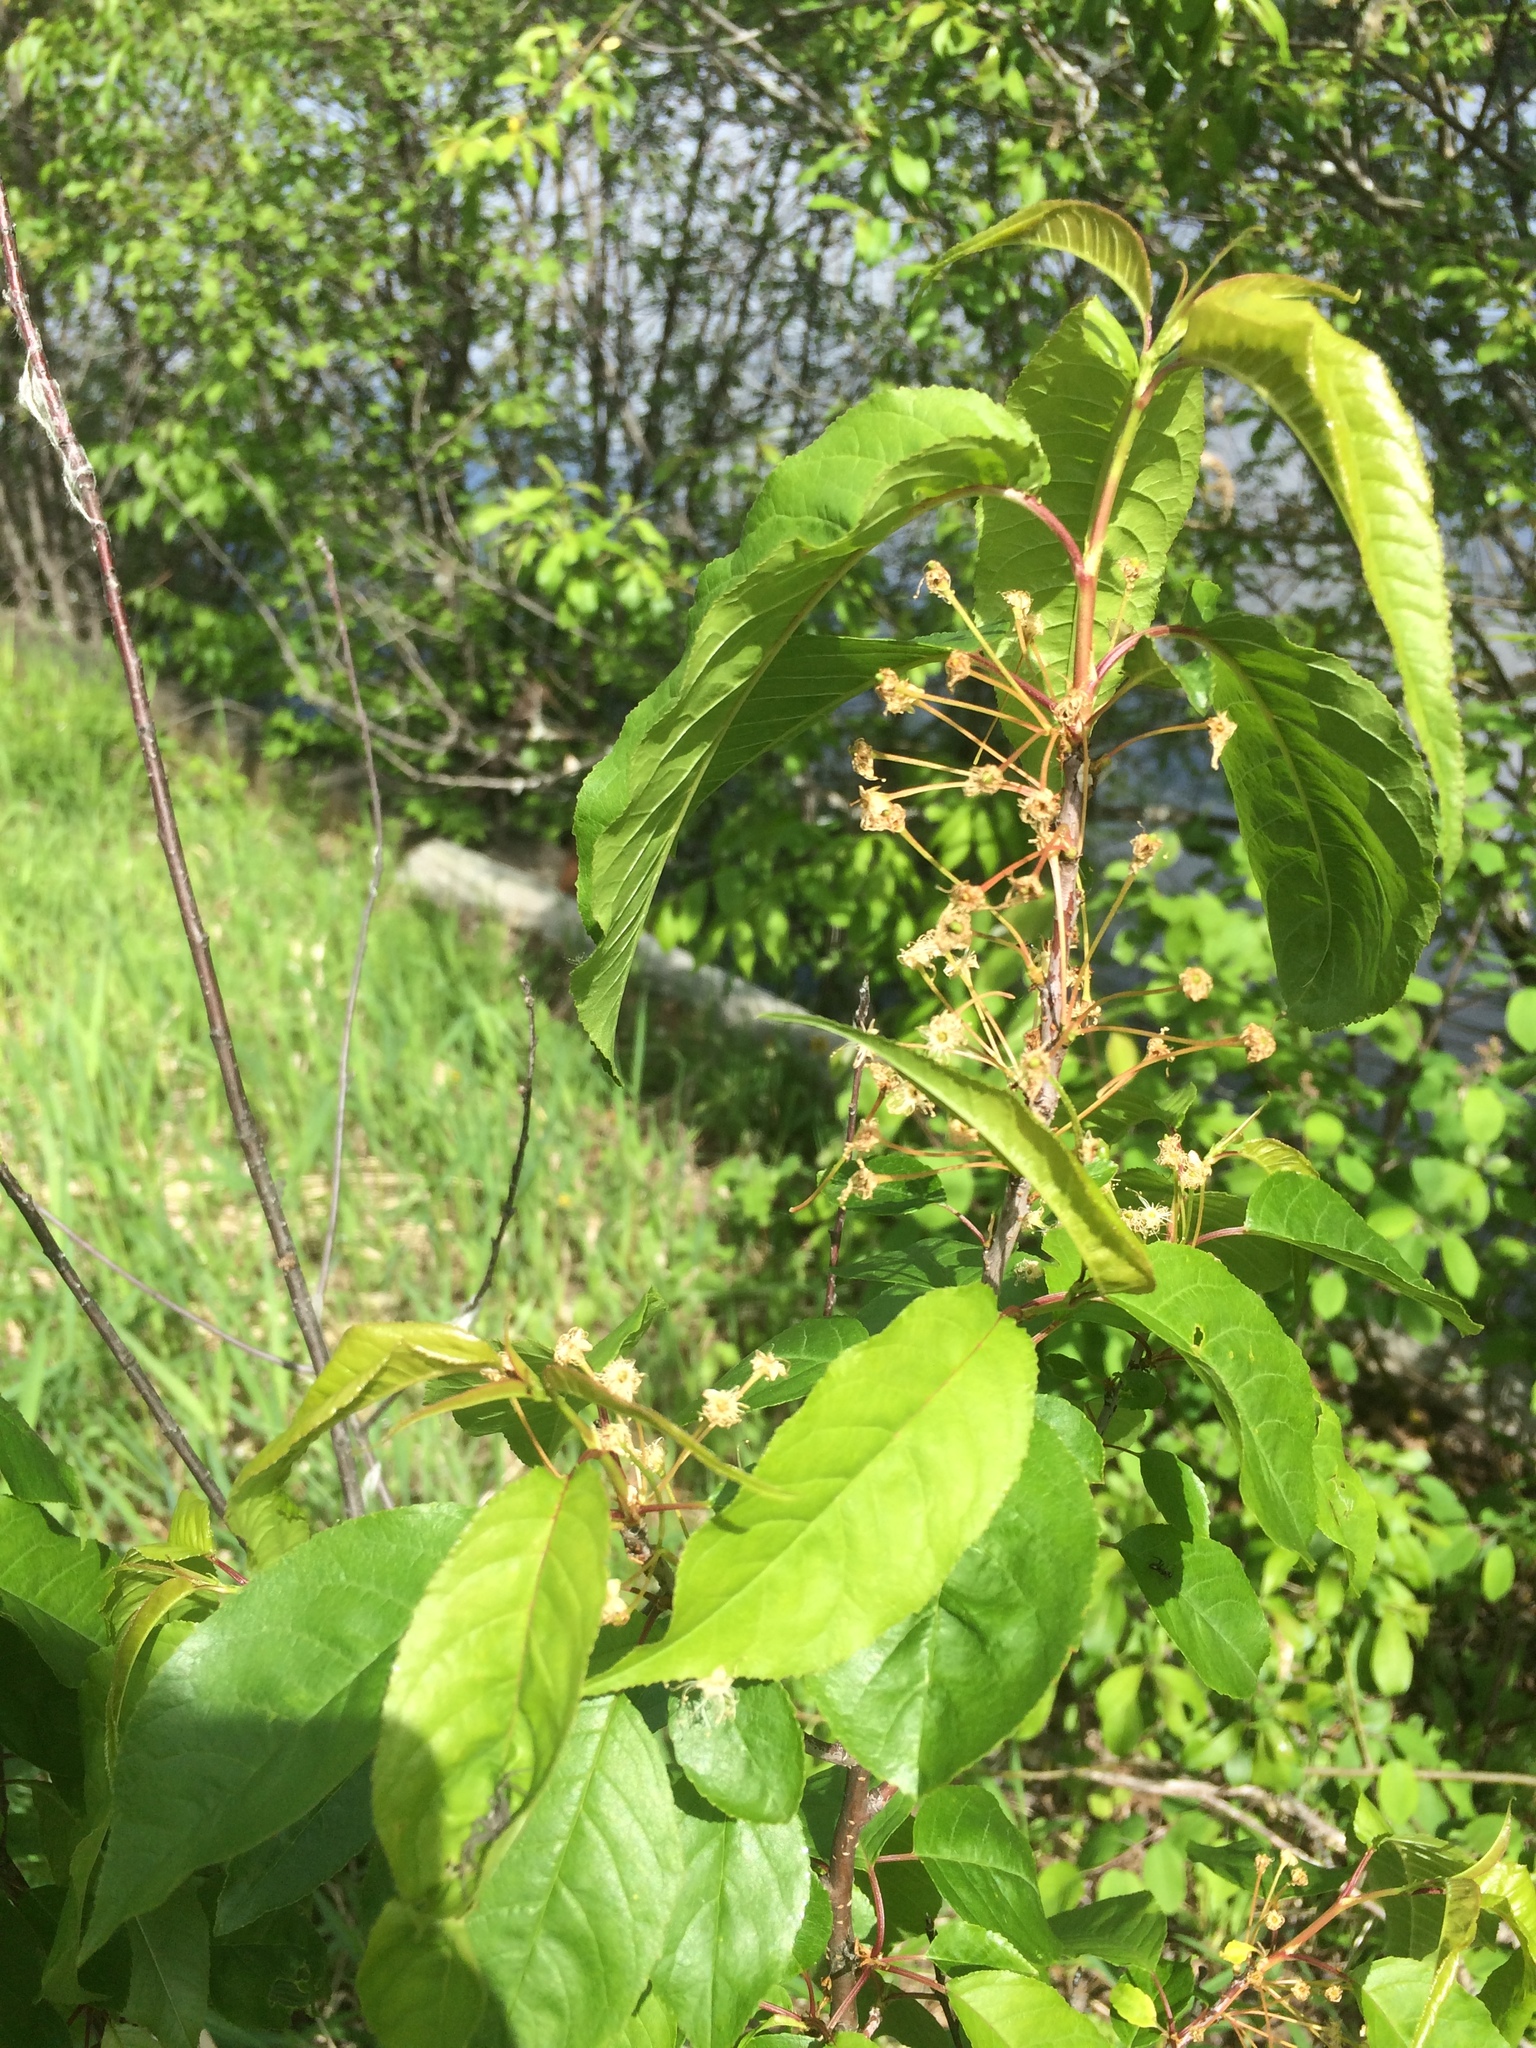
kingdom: Plantae
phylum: Tracheophyta
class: Magnoliopsida
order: Rosales
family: Rosaceae
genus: Prunus
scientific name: Prunus pensylvanica
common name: Pin cherry
